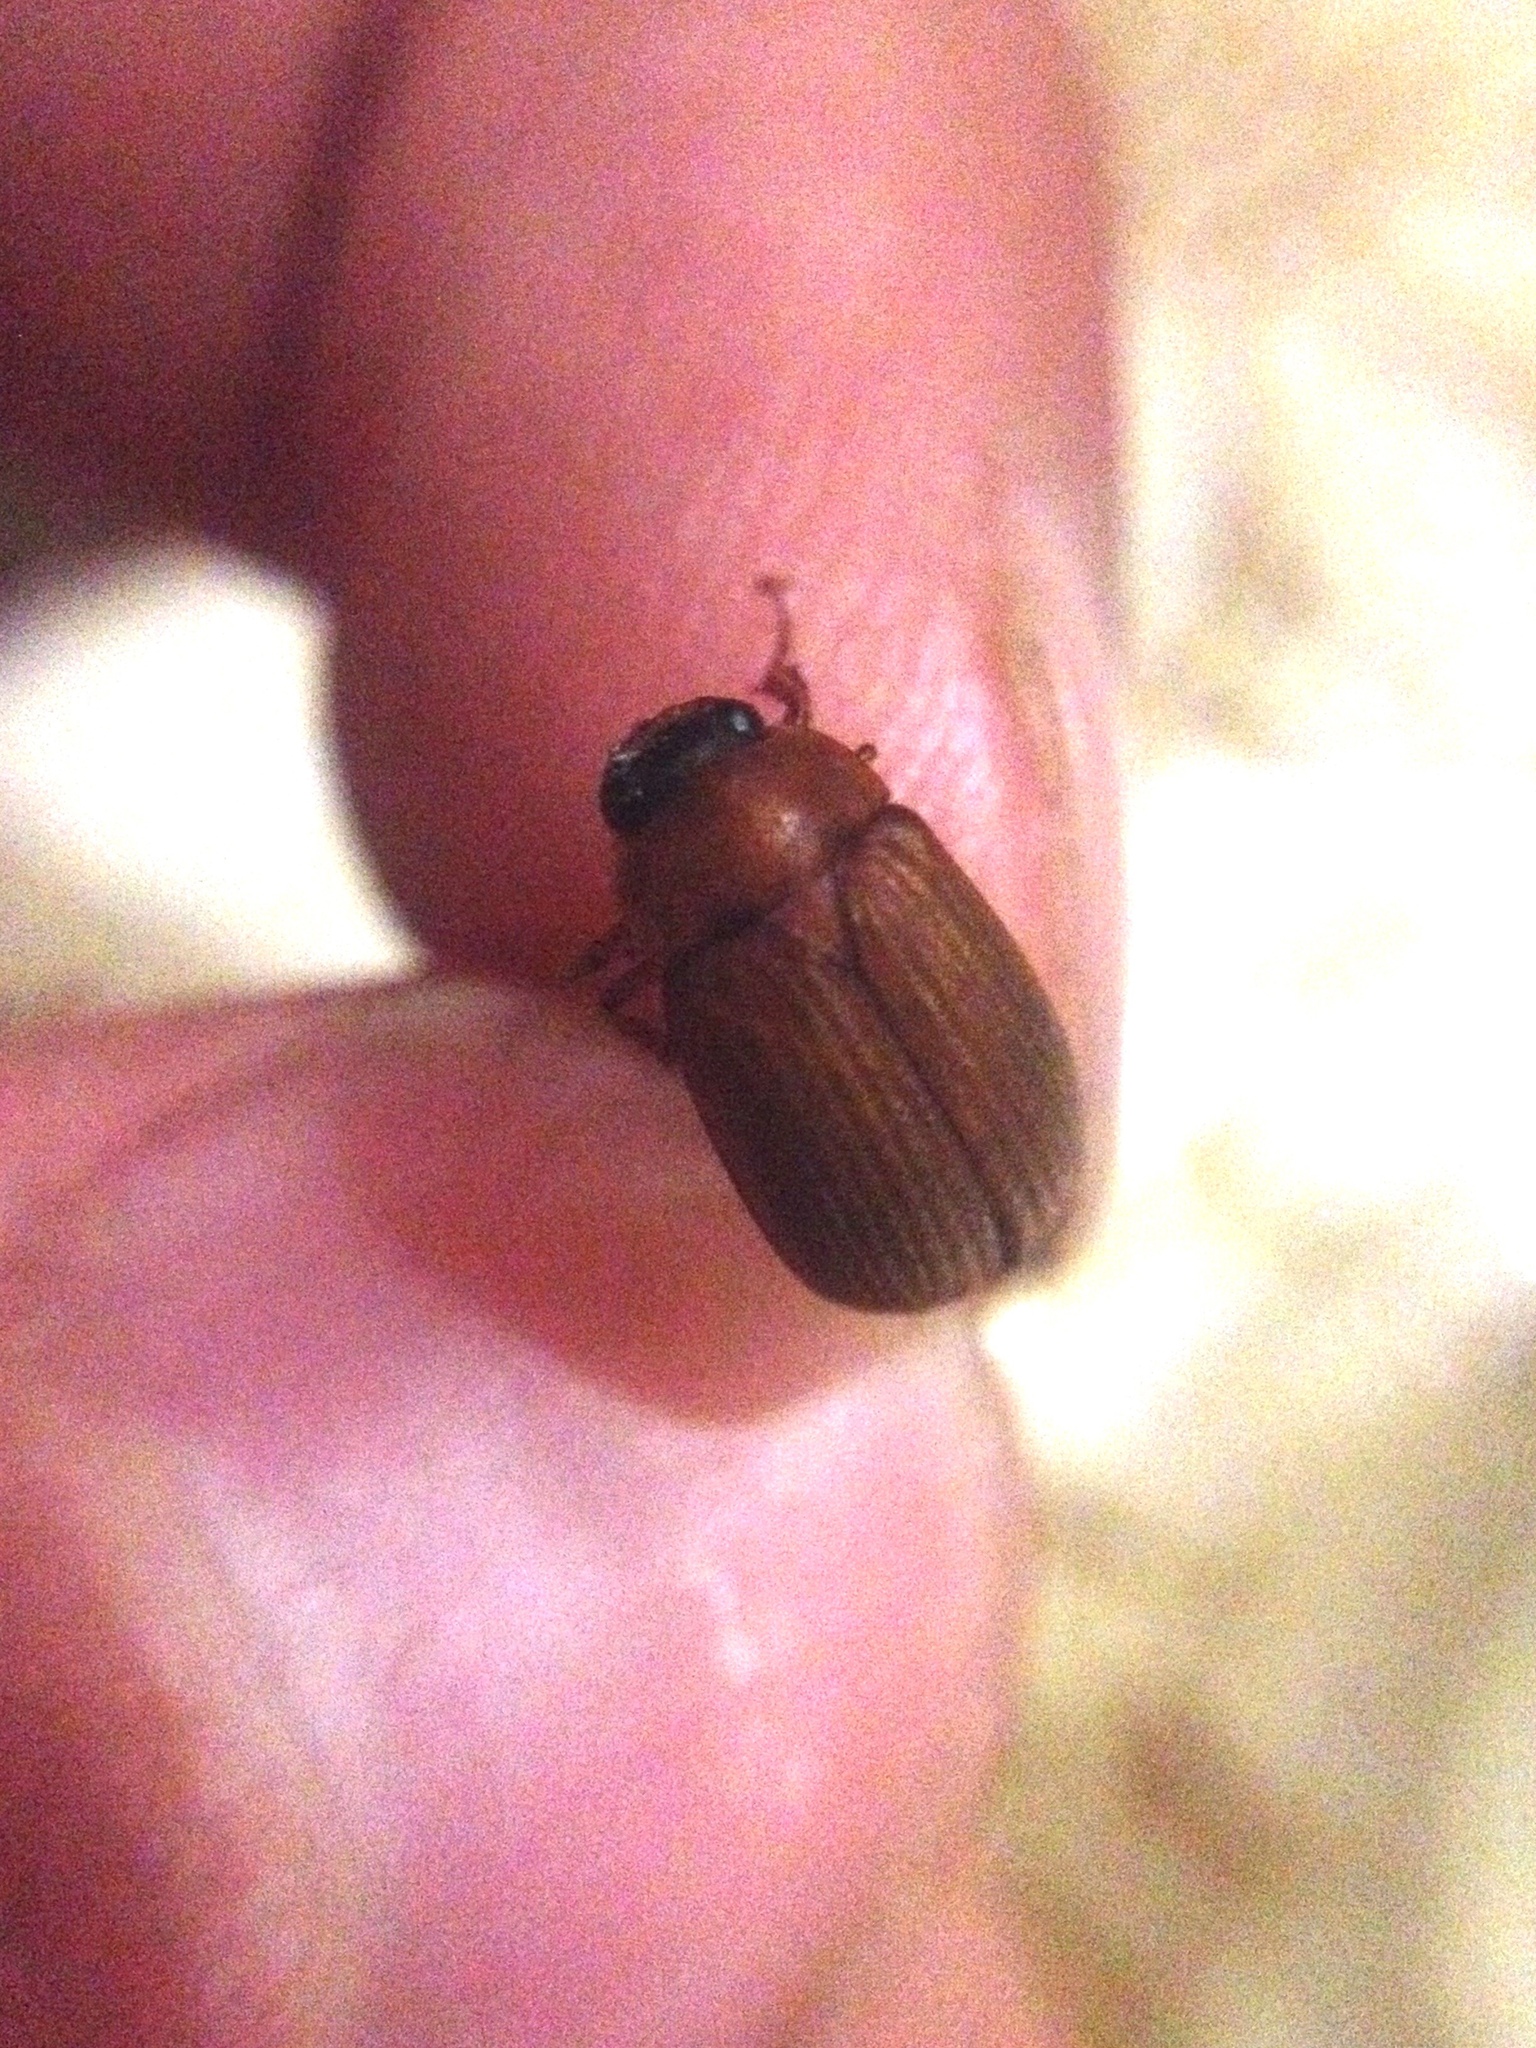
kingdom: Animalia
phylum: Arthropoda
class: Insecta
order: Coleoptera
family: Scarabaeidae
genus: Serica
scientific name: Serica brunnea
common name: Brown chafer
